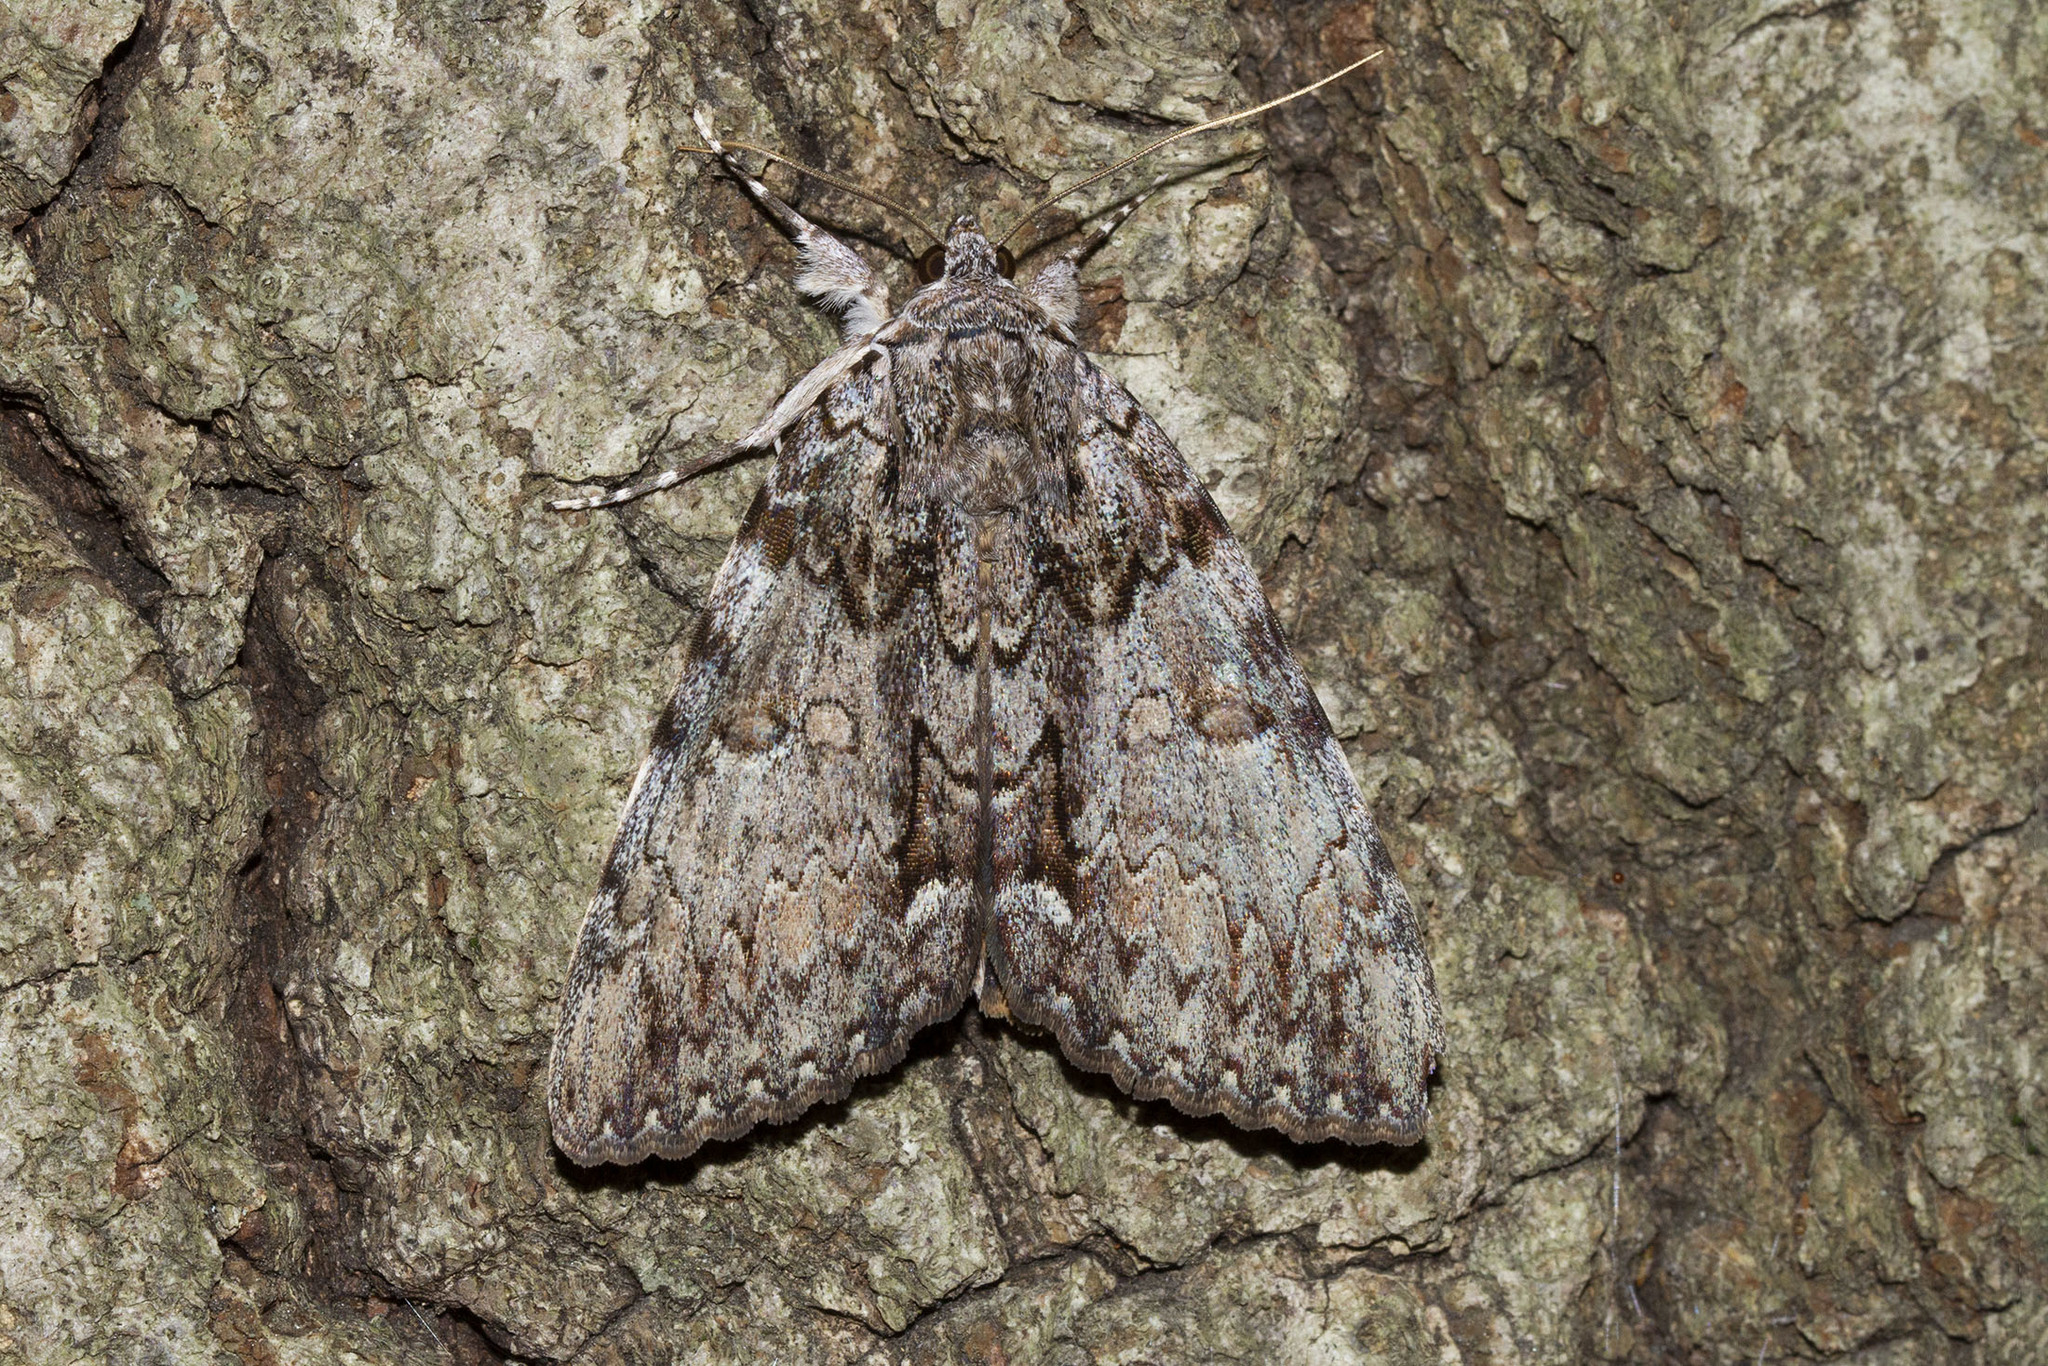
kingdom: Animalia
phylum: Arthropoda
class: Insecta
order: Lepidoptera
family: Erebidae
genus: Catocala
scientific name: Catocala palaeogama
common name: Oldwife underwing
